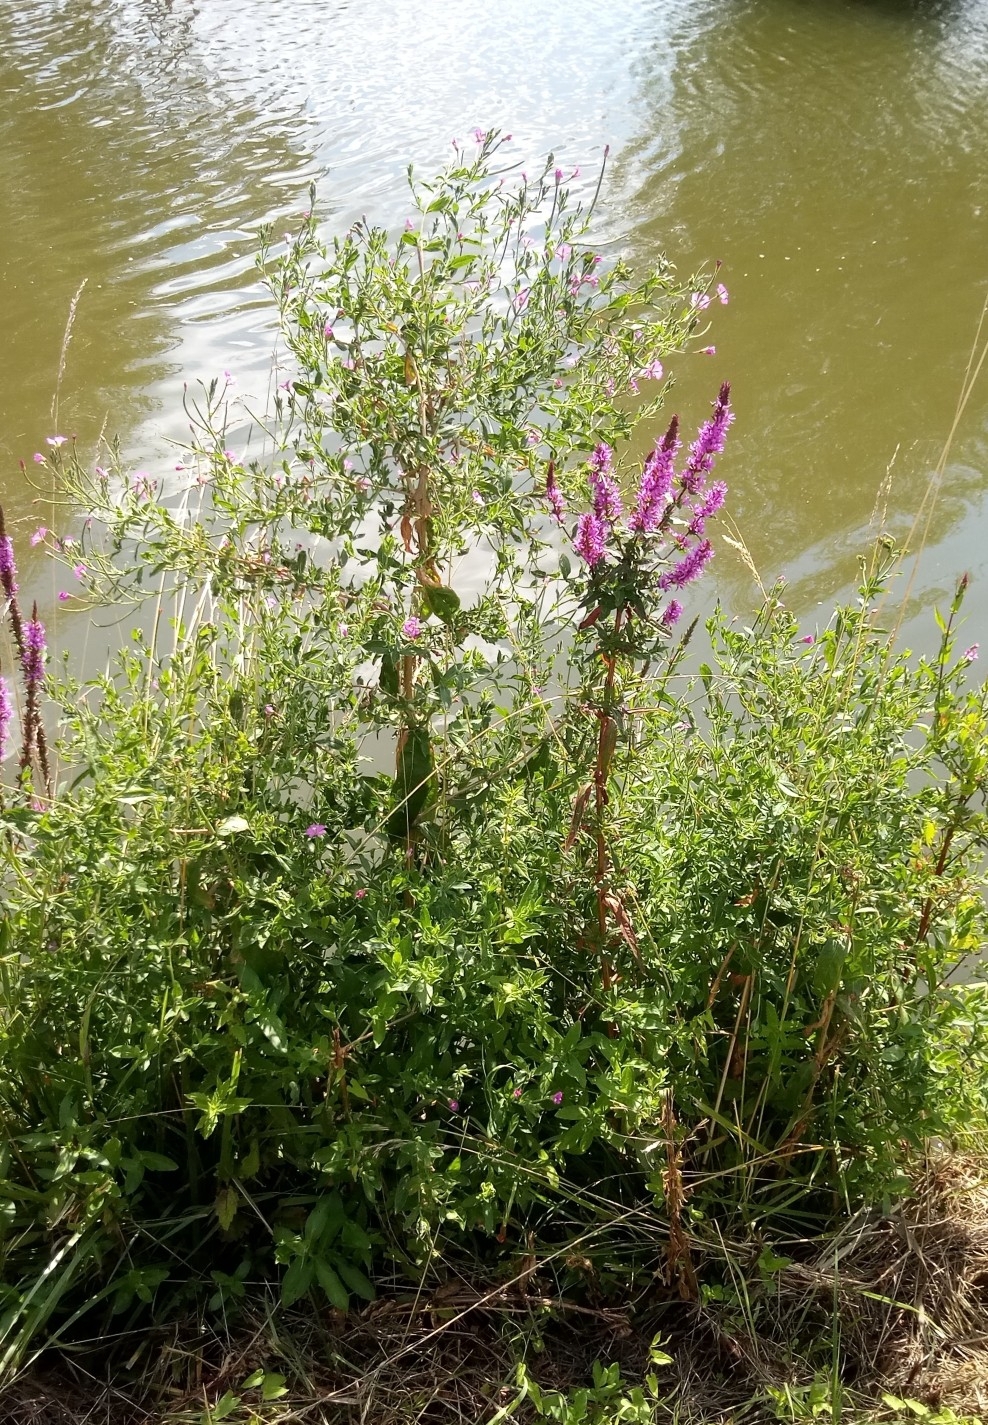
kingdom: Plantae
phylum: Tracheophyta
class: Magnoliopsida
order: Myrtales
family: Onagraceae
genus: Epilobium
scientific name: Epilobium hirsutum
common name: Great willowherb
